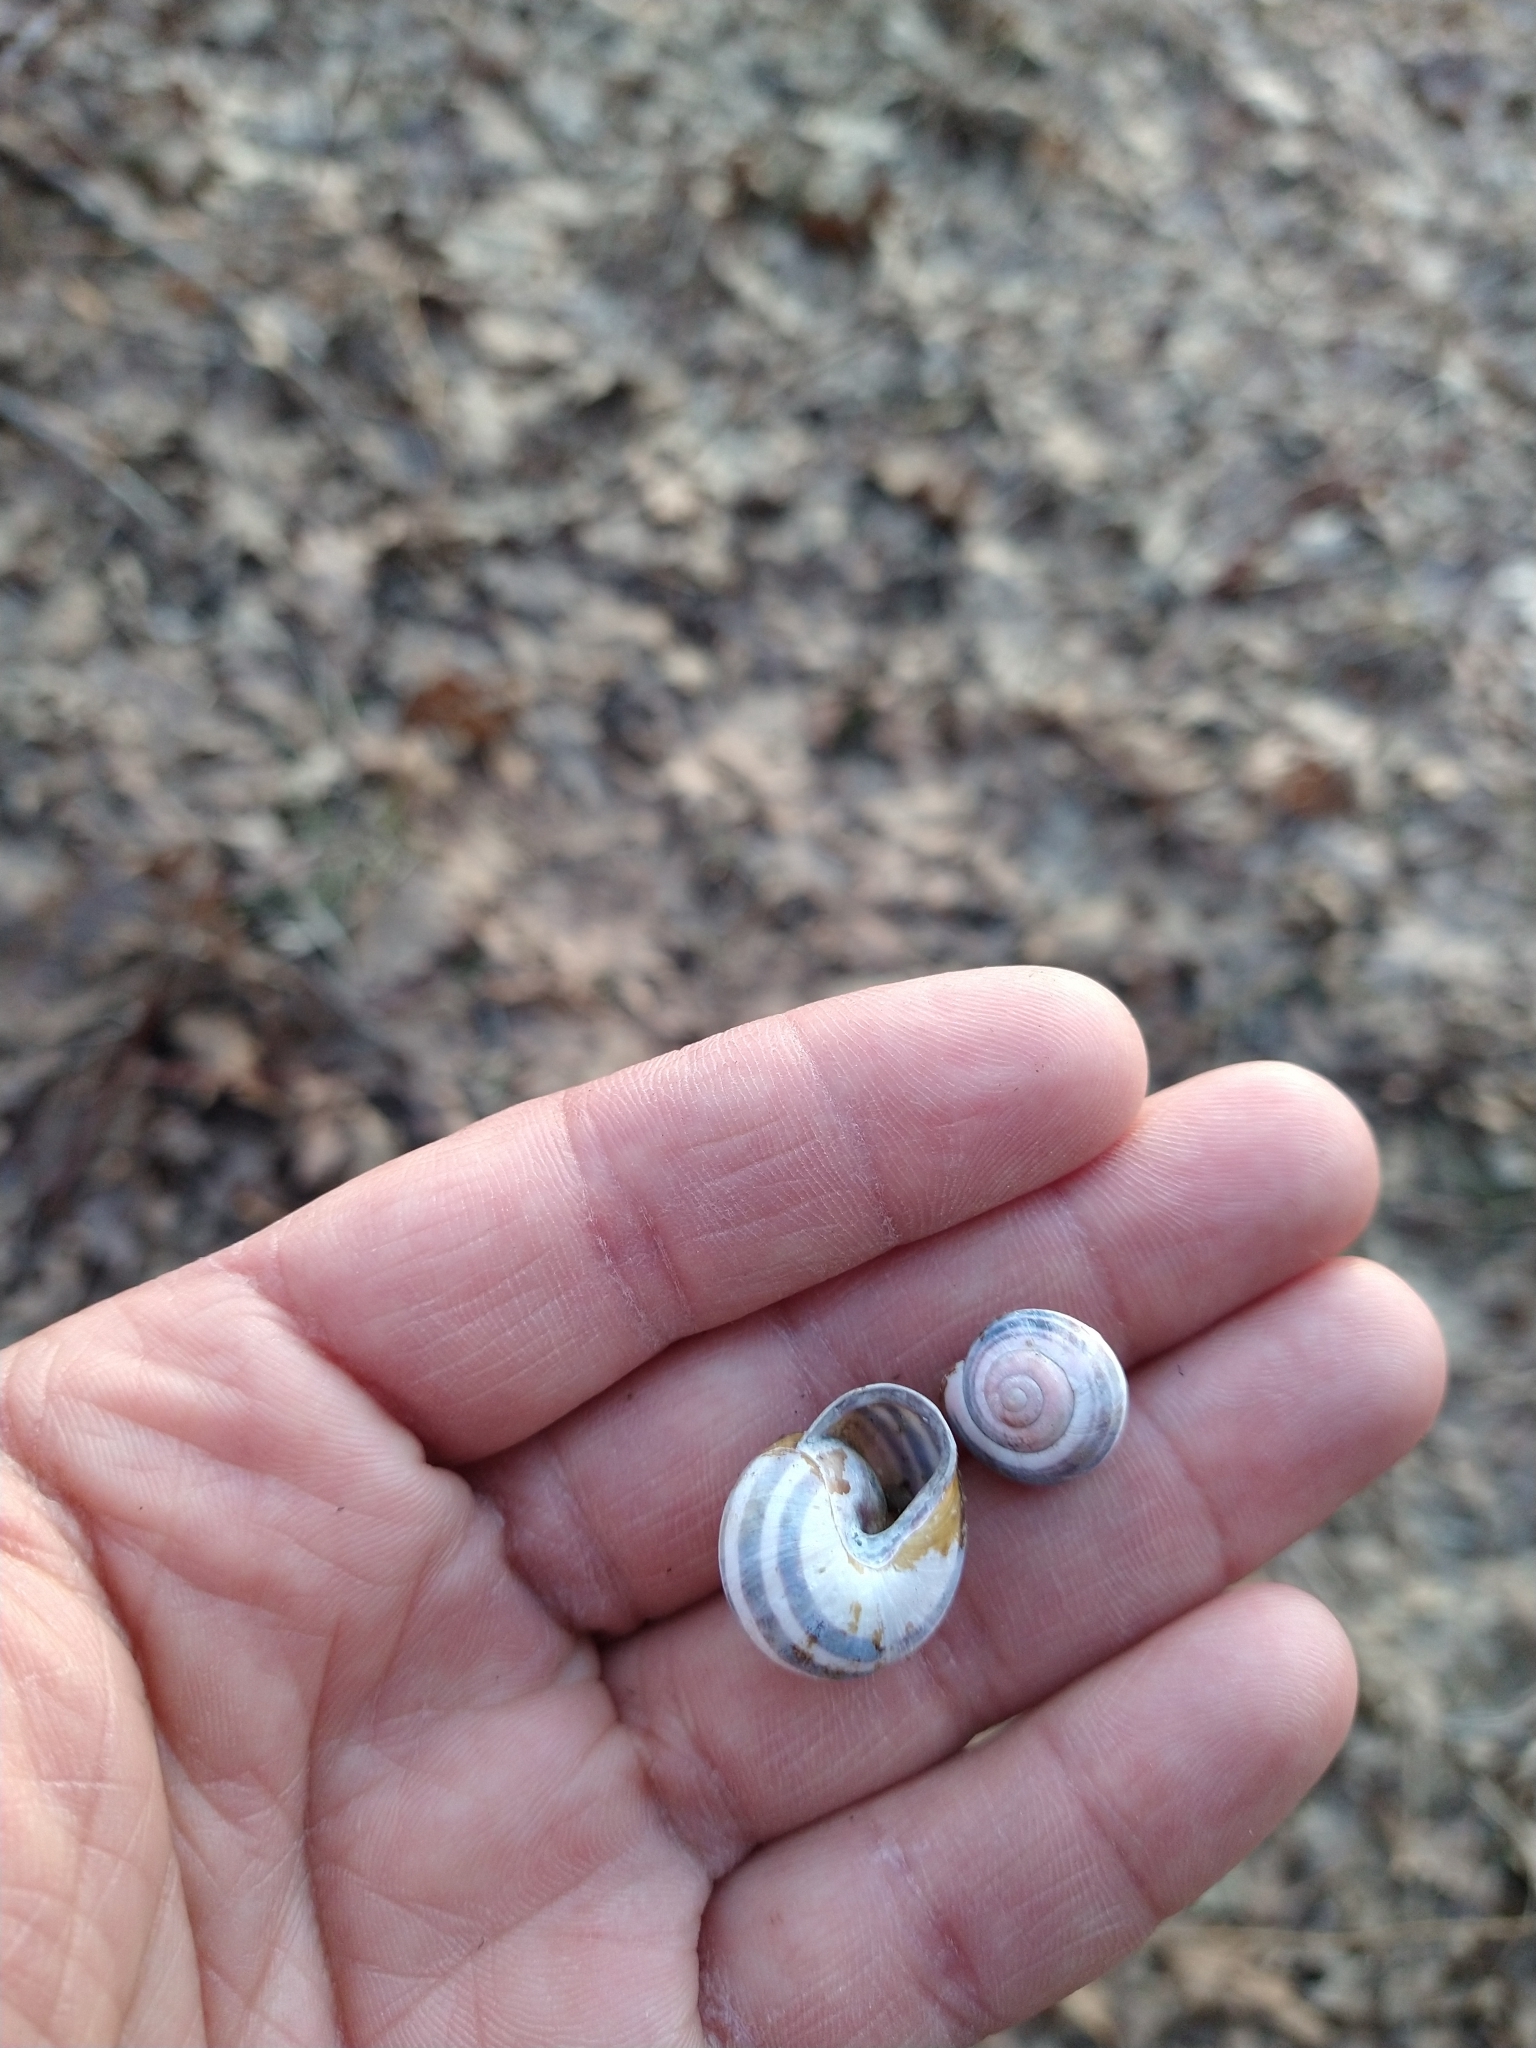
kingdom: Animalia
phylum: Mollusca
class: Gastropoda
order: Stylommatophora
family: Helicidae
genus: Cepaea
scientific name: Cepaea nemoralis
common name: Grovesnail
